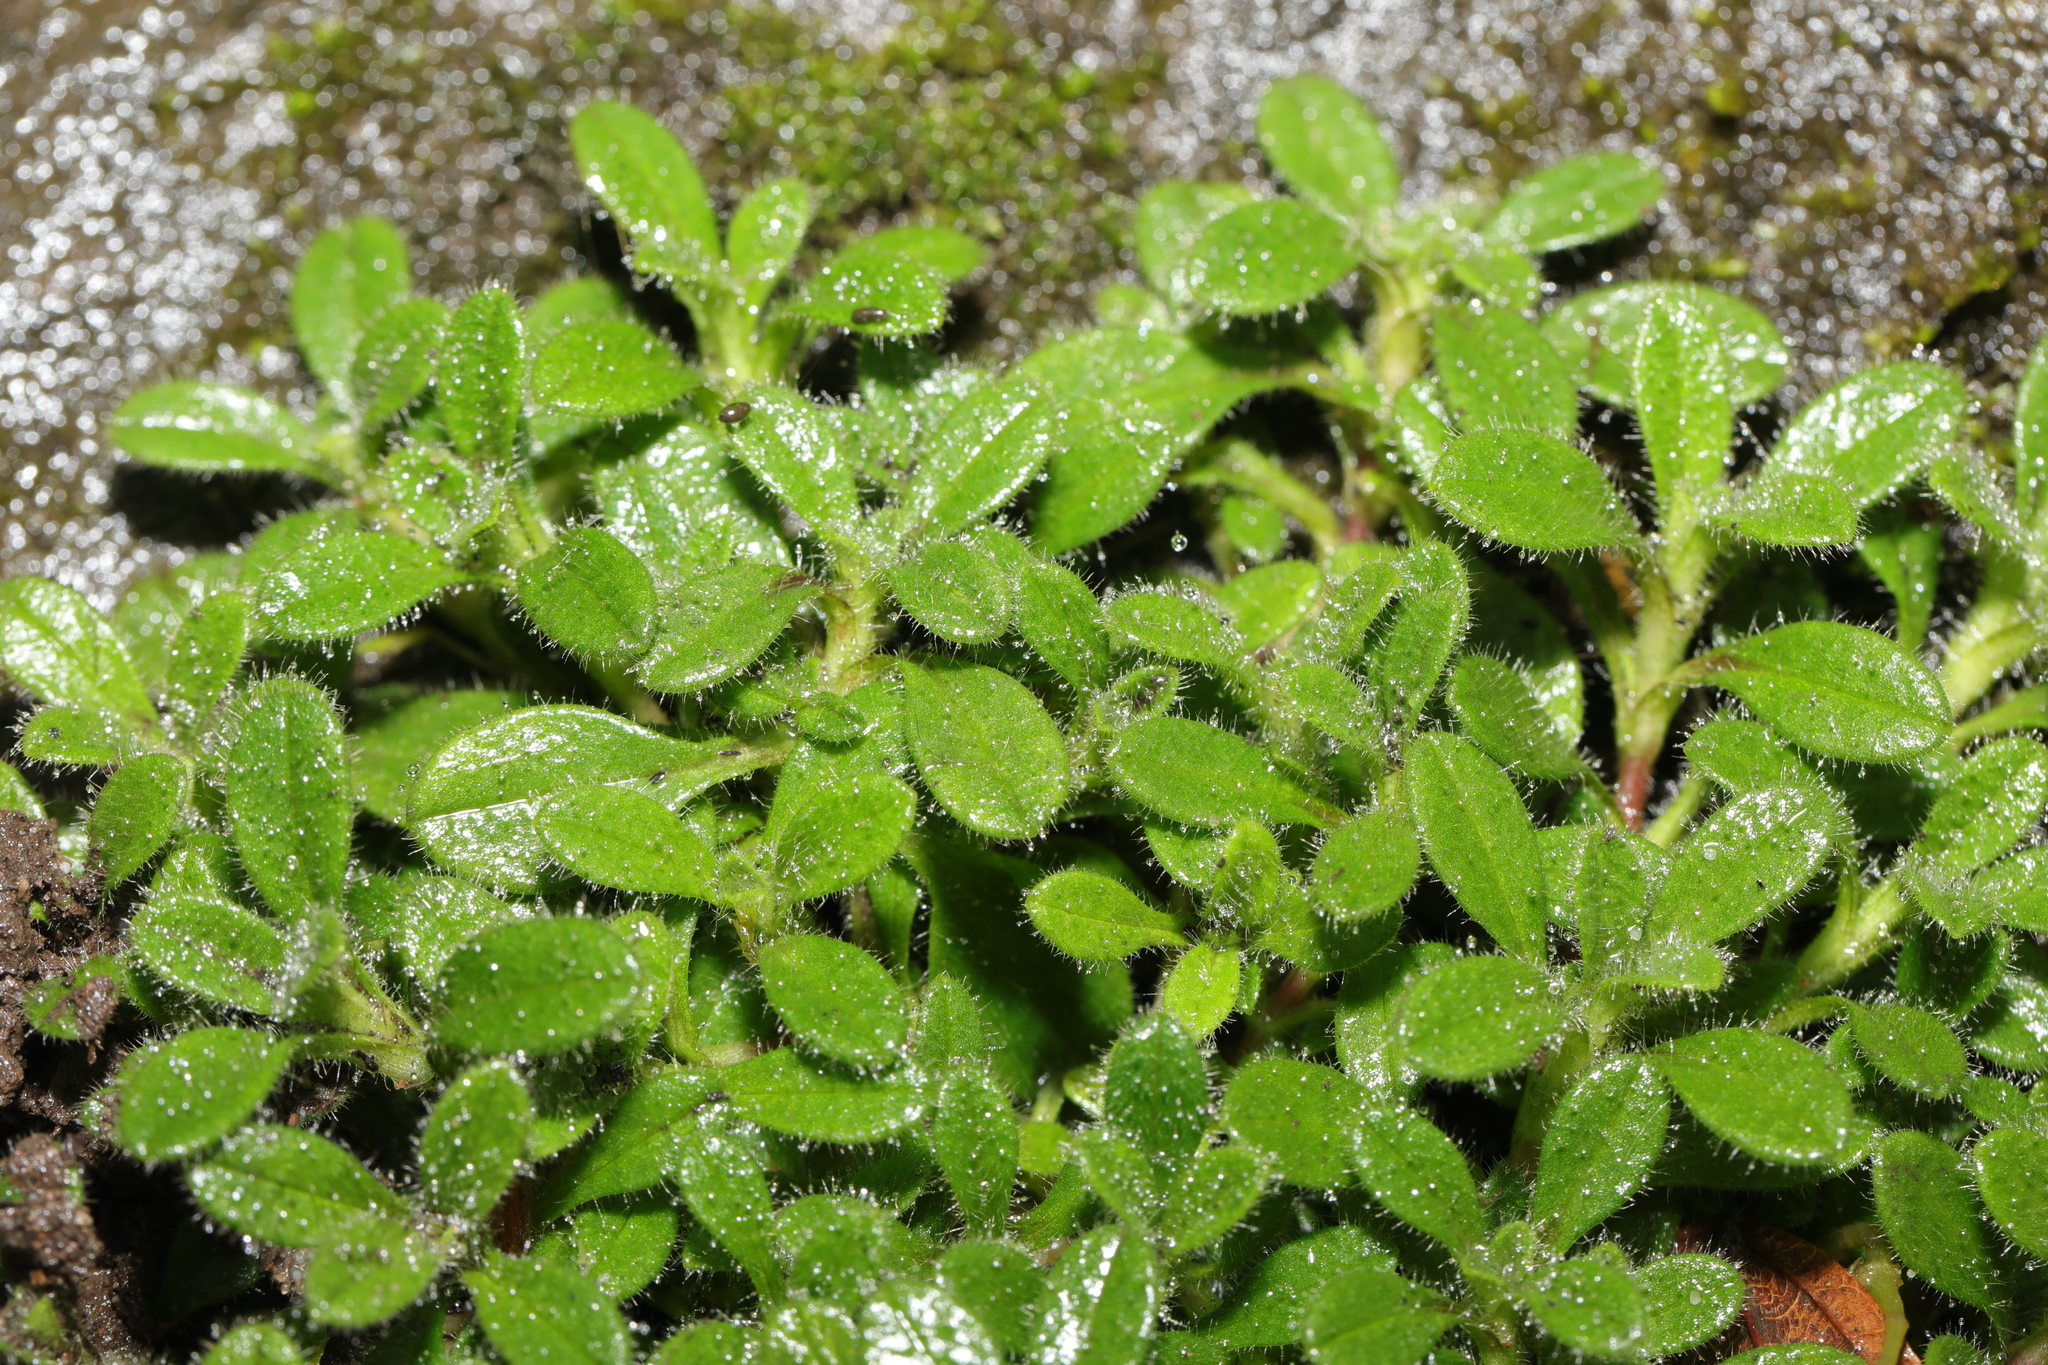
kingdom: Plantae
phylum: Tracheophyta
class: Magnoliopsida
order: Caryophyllales
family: Caryophyllaceae
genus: Cerastium
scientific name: Cerastium fontanum
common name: Common mouse-ear
